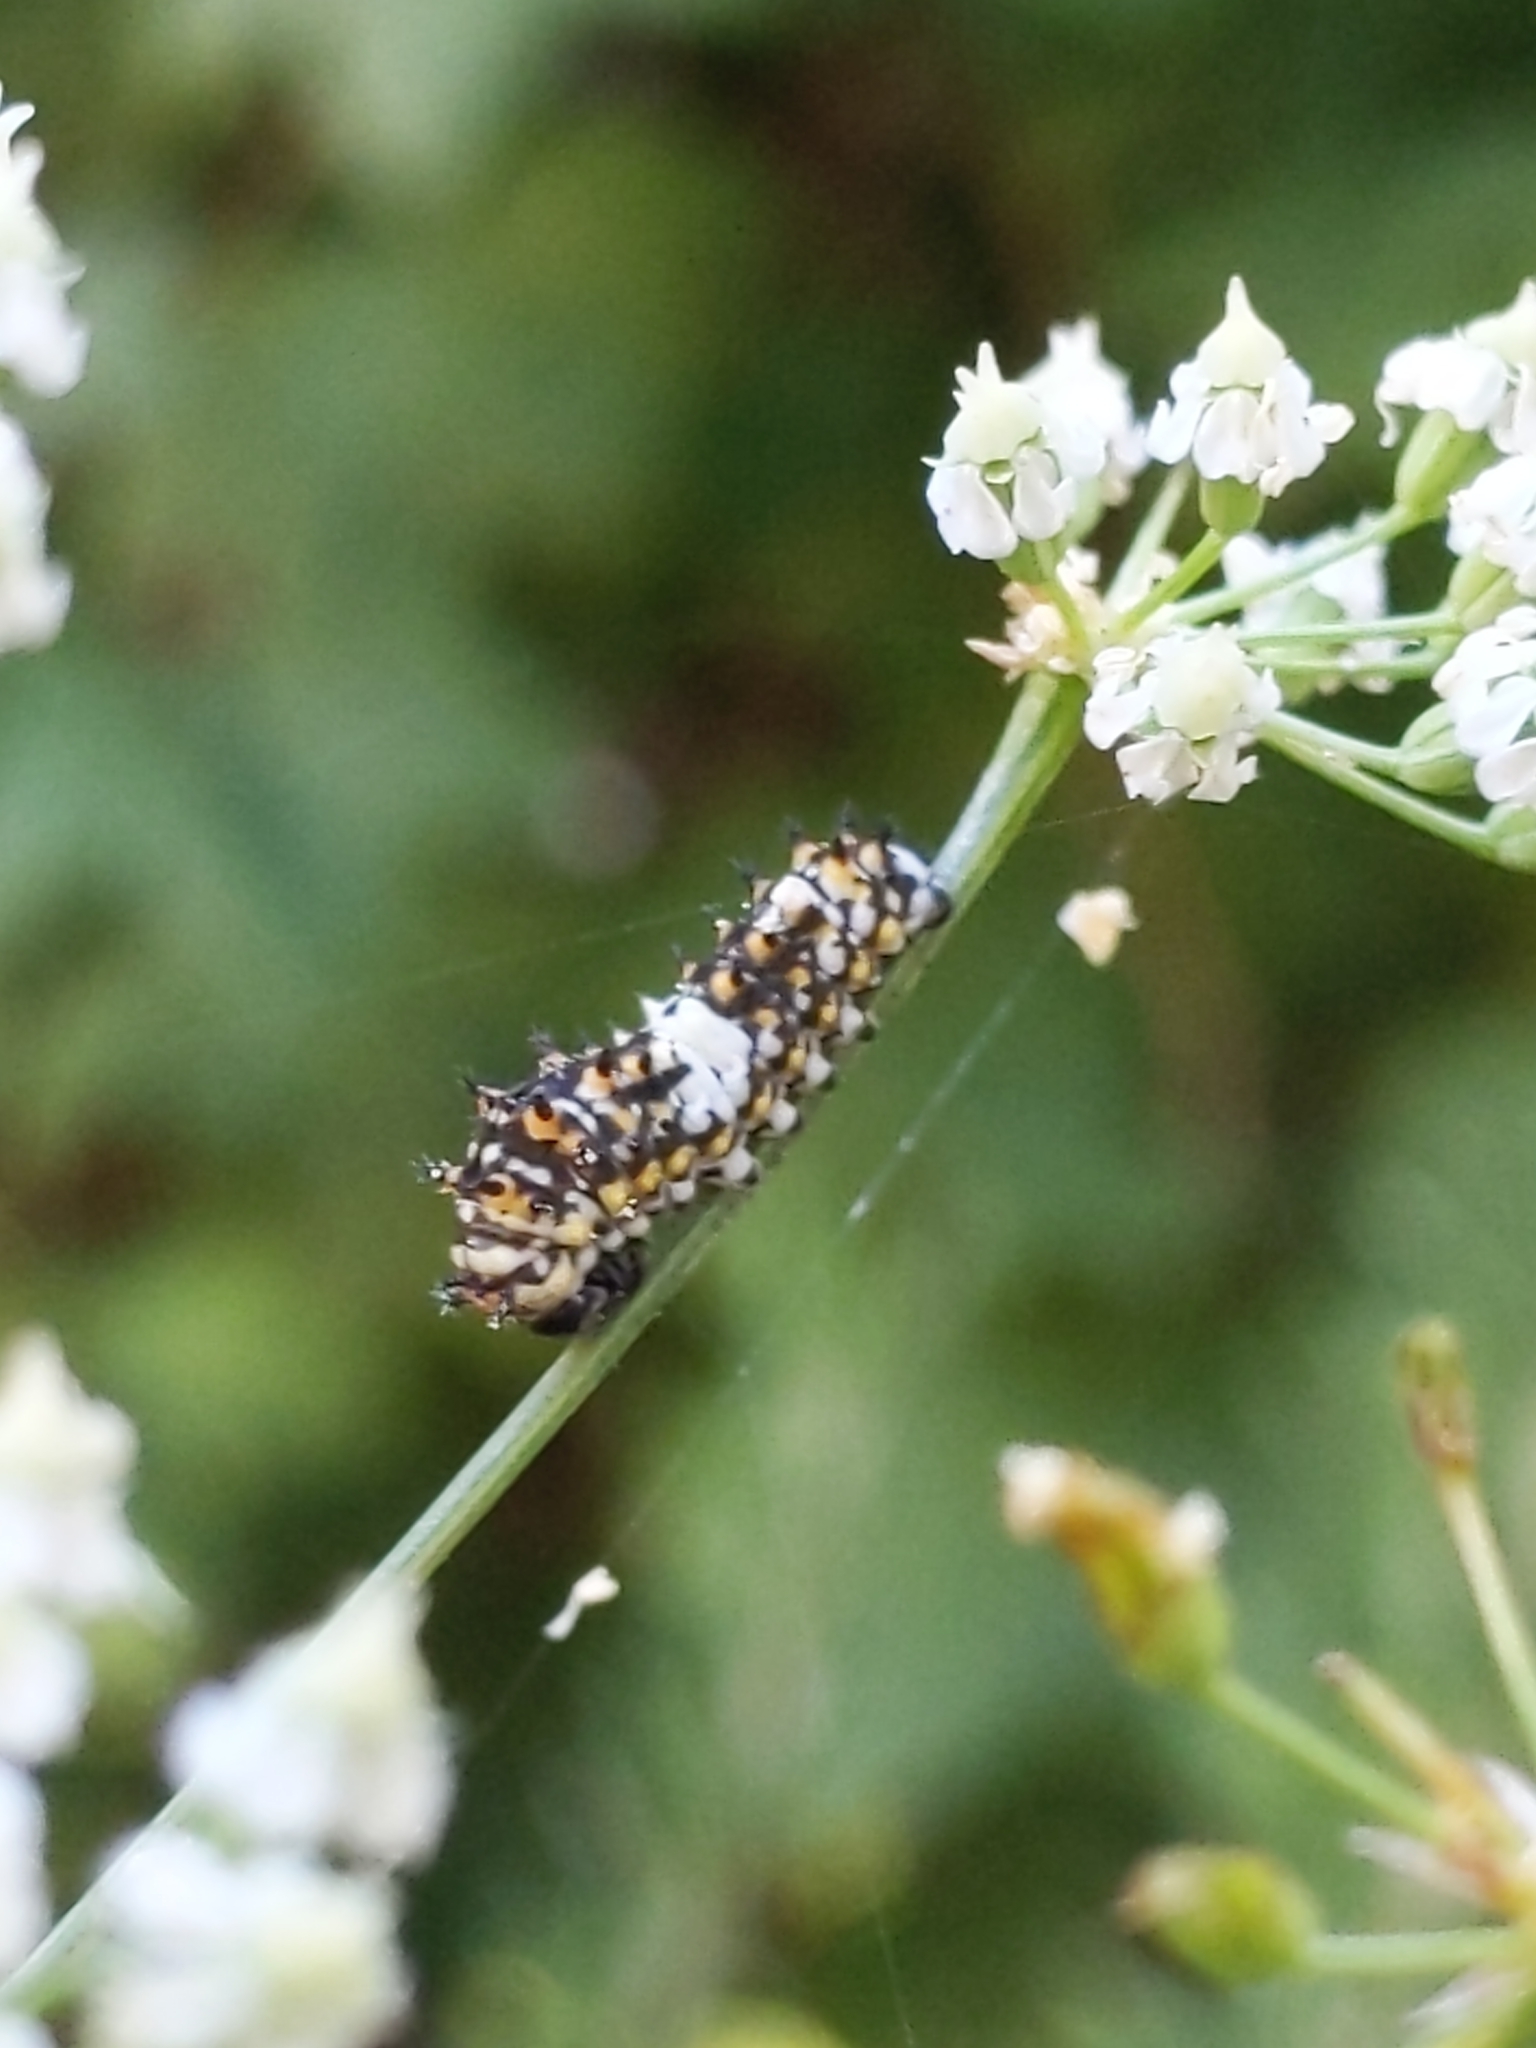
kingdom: Animalia
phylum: Arthropoda
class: Insecta
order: Lepidoptera
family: Papilionidae
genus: Papilio
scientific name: Papilio zelicaon
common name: Anise swallowtail
